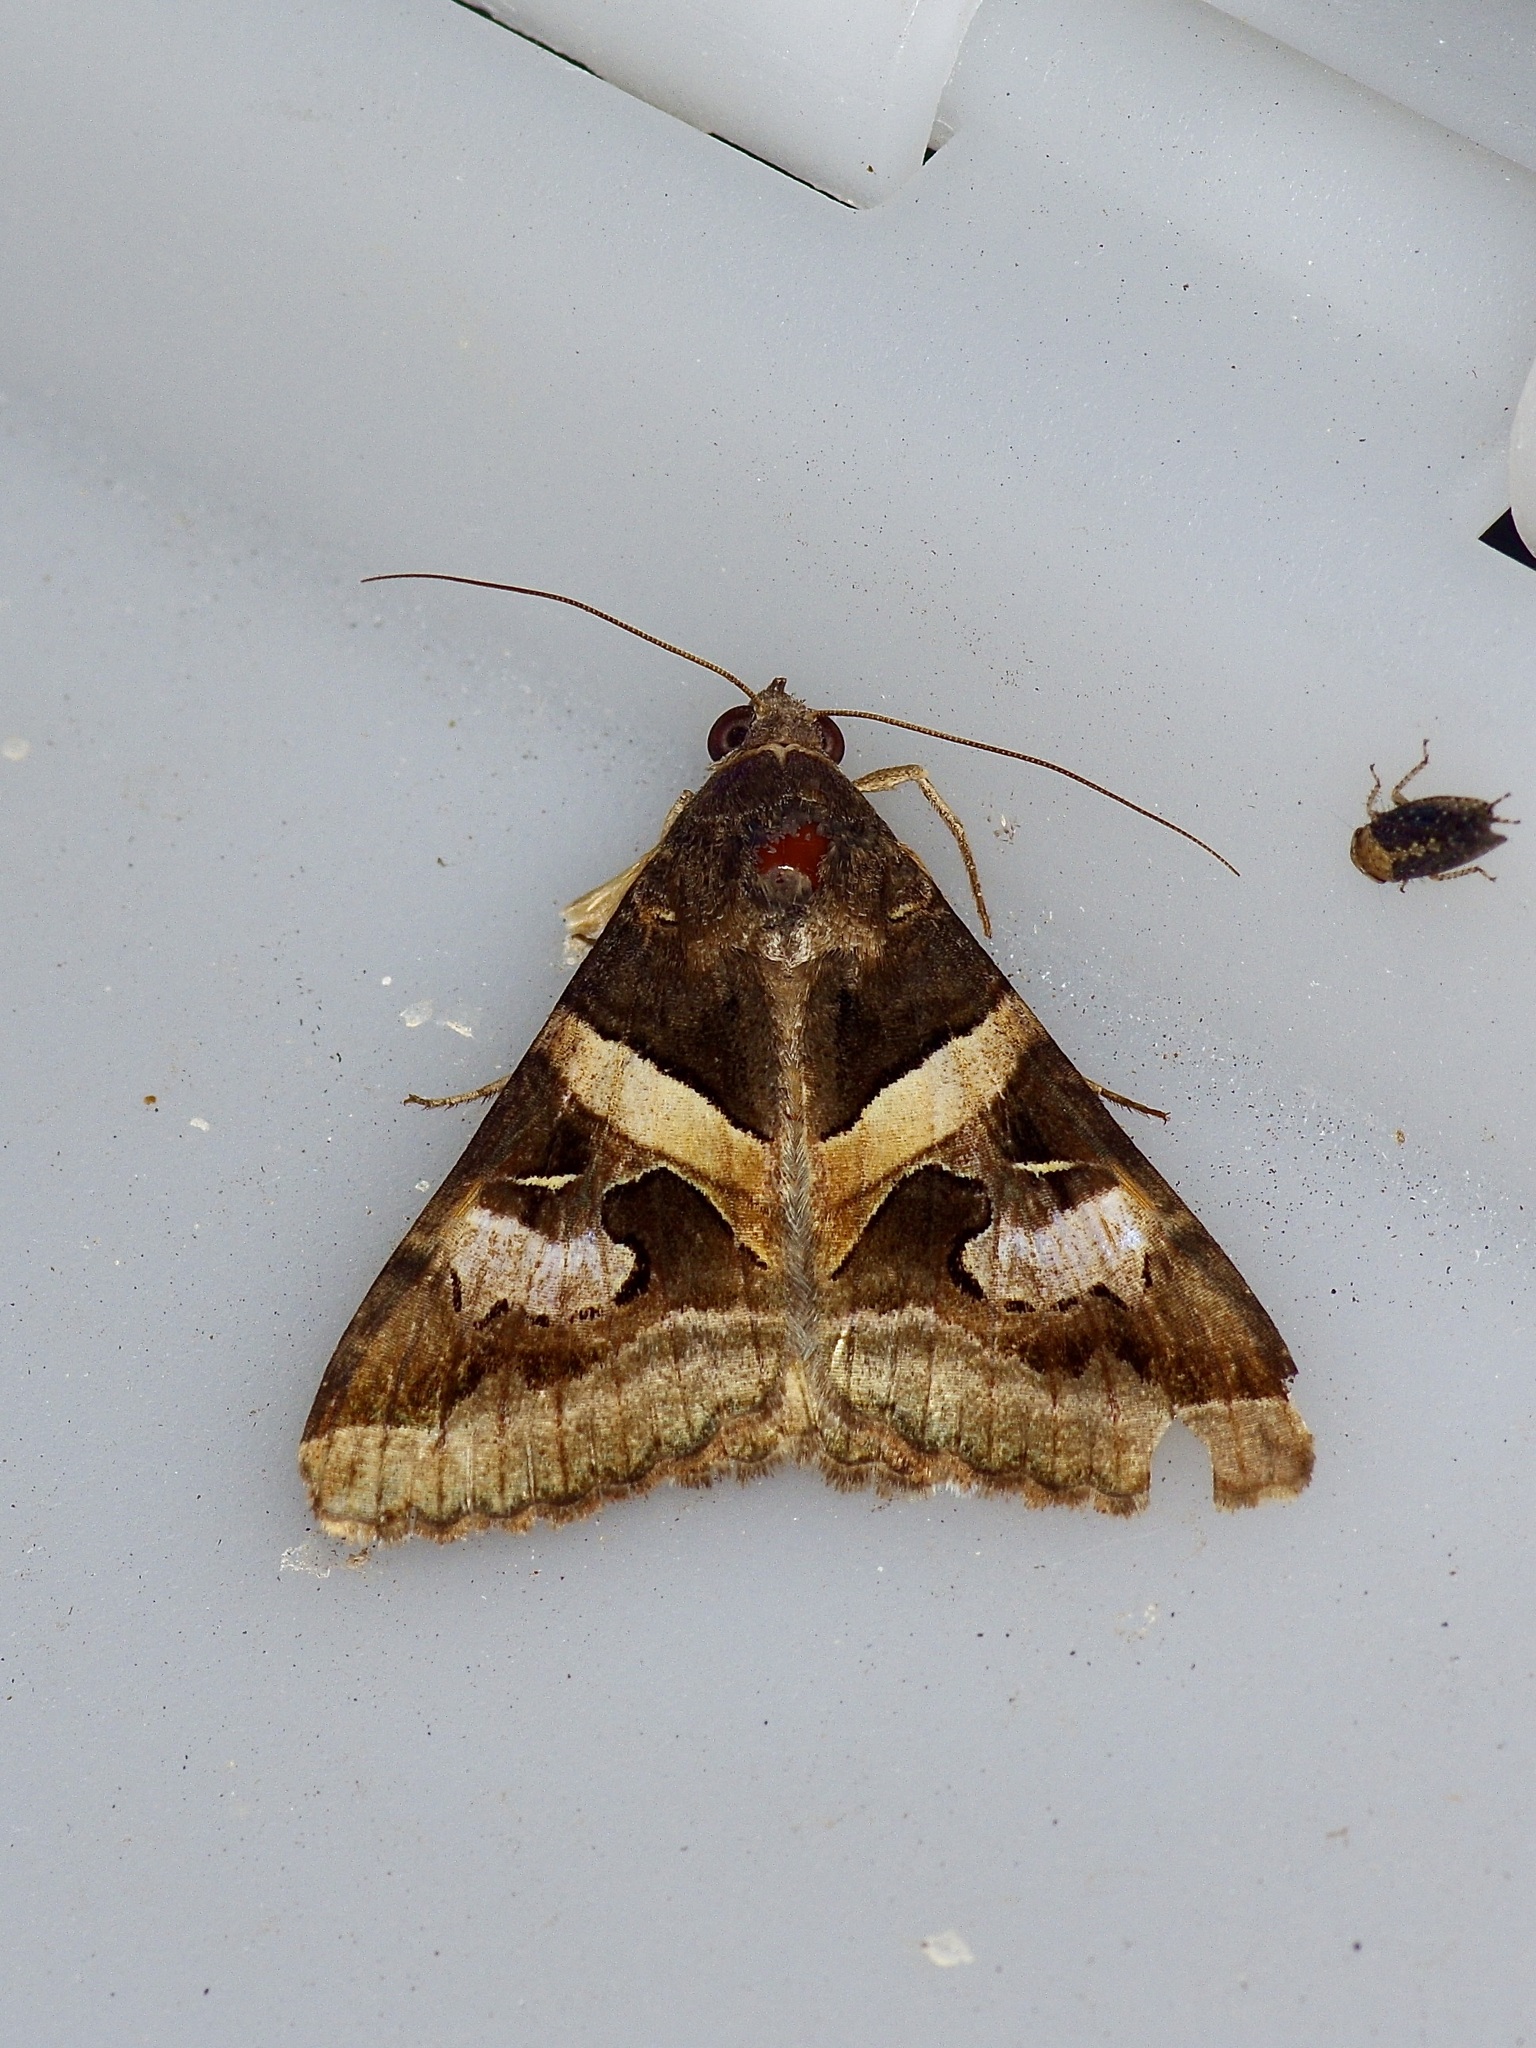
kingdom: Animalia
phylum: Arthropoda
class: Insecta
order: Lepidoptera
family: Erebidae
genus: Melipotis
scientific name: Melipotis indomita
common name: Moth
